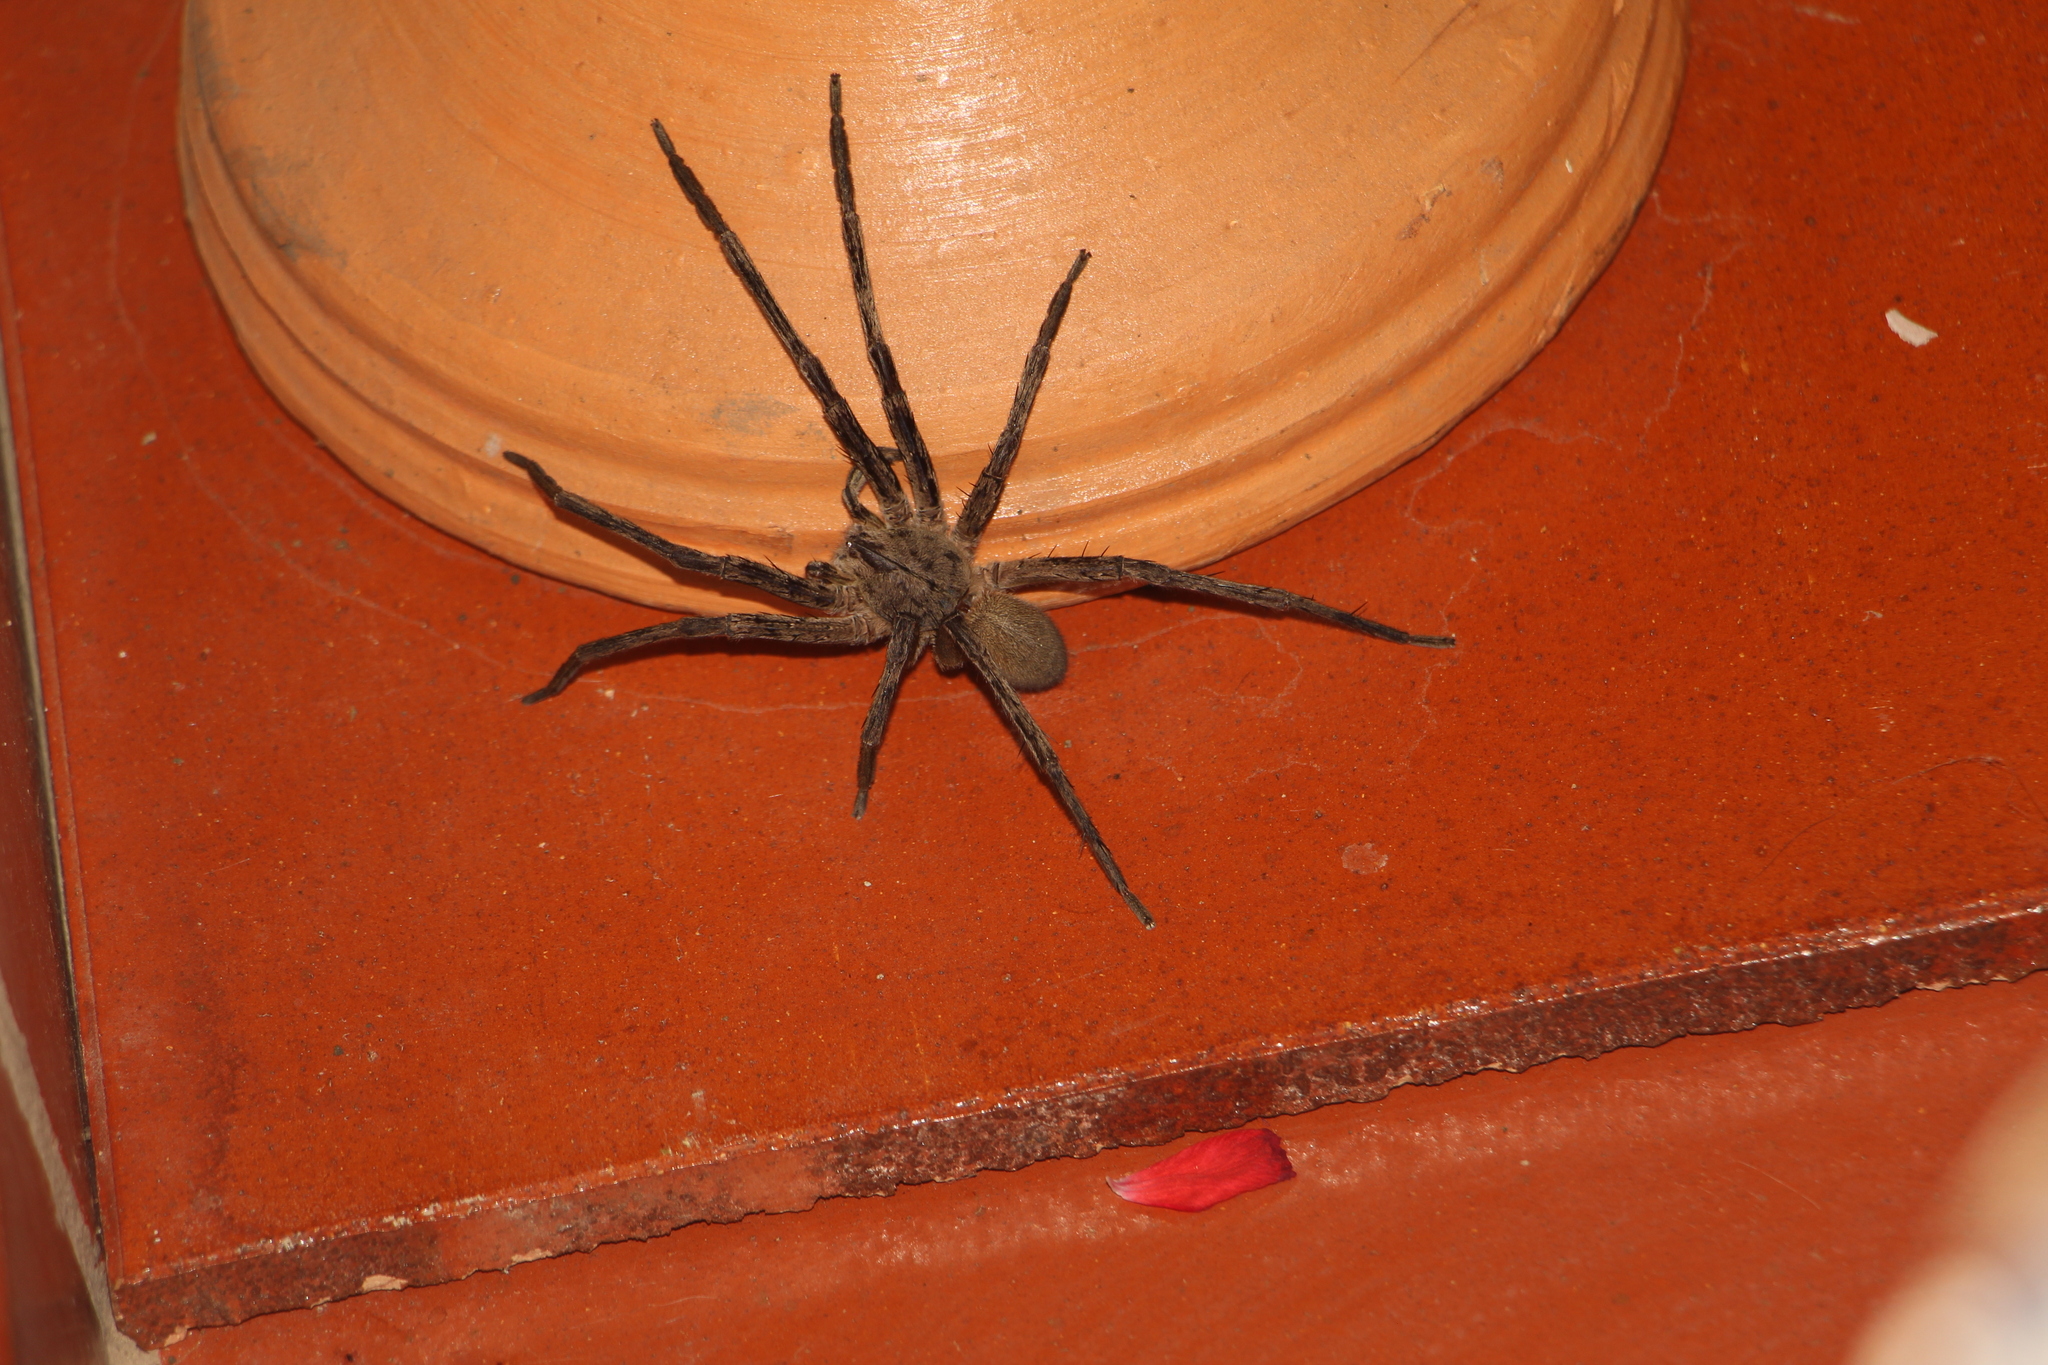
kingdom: Animalia
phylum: Arthropoda
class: Arachnida
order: Araneae
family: Ctenidae
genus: Phoneutria
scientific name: Phoneutria depilata
